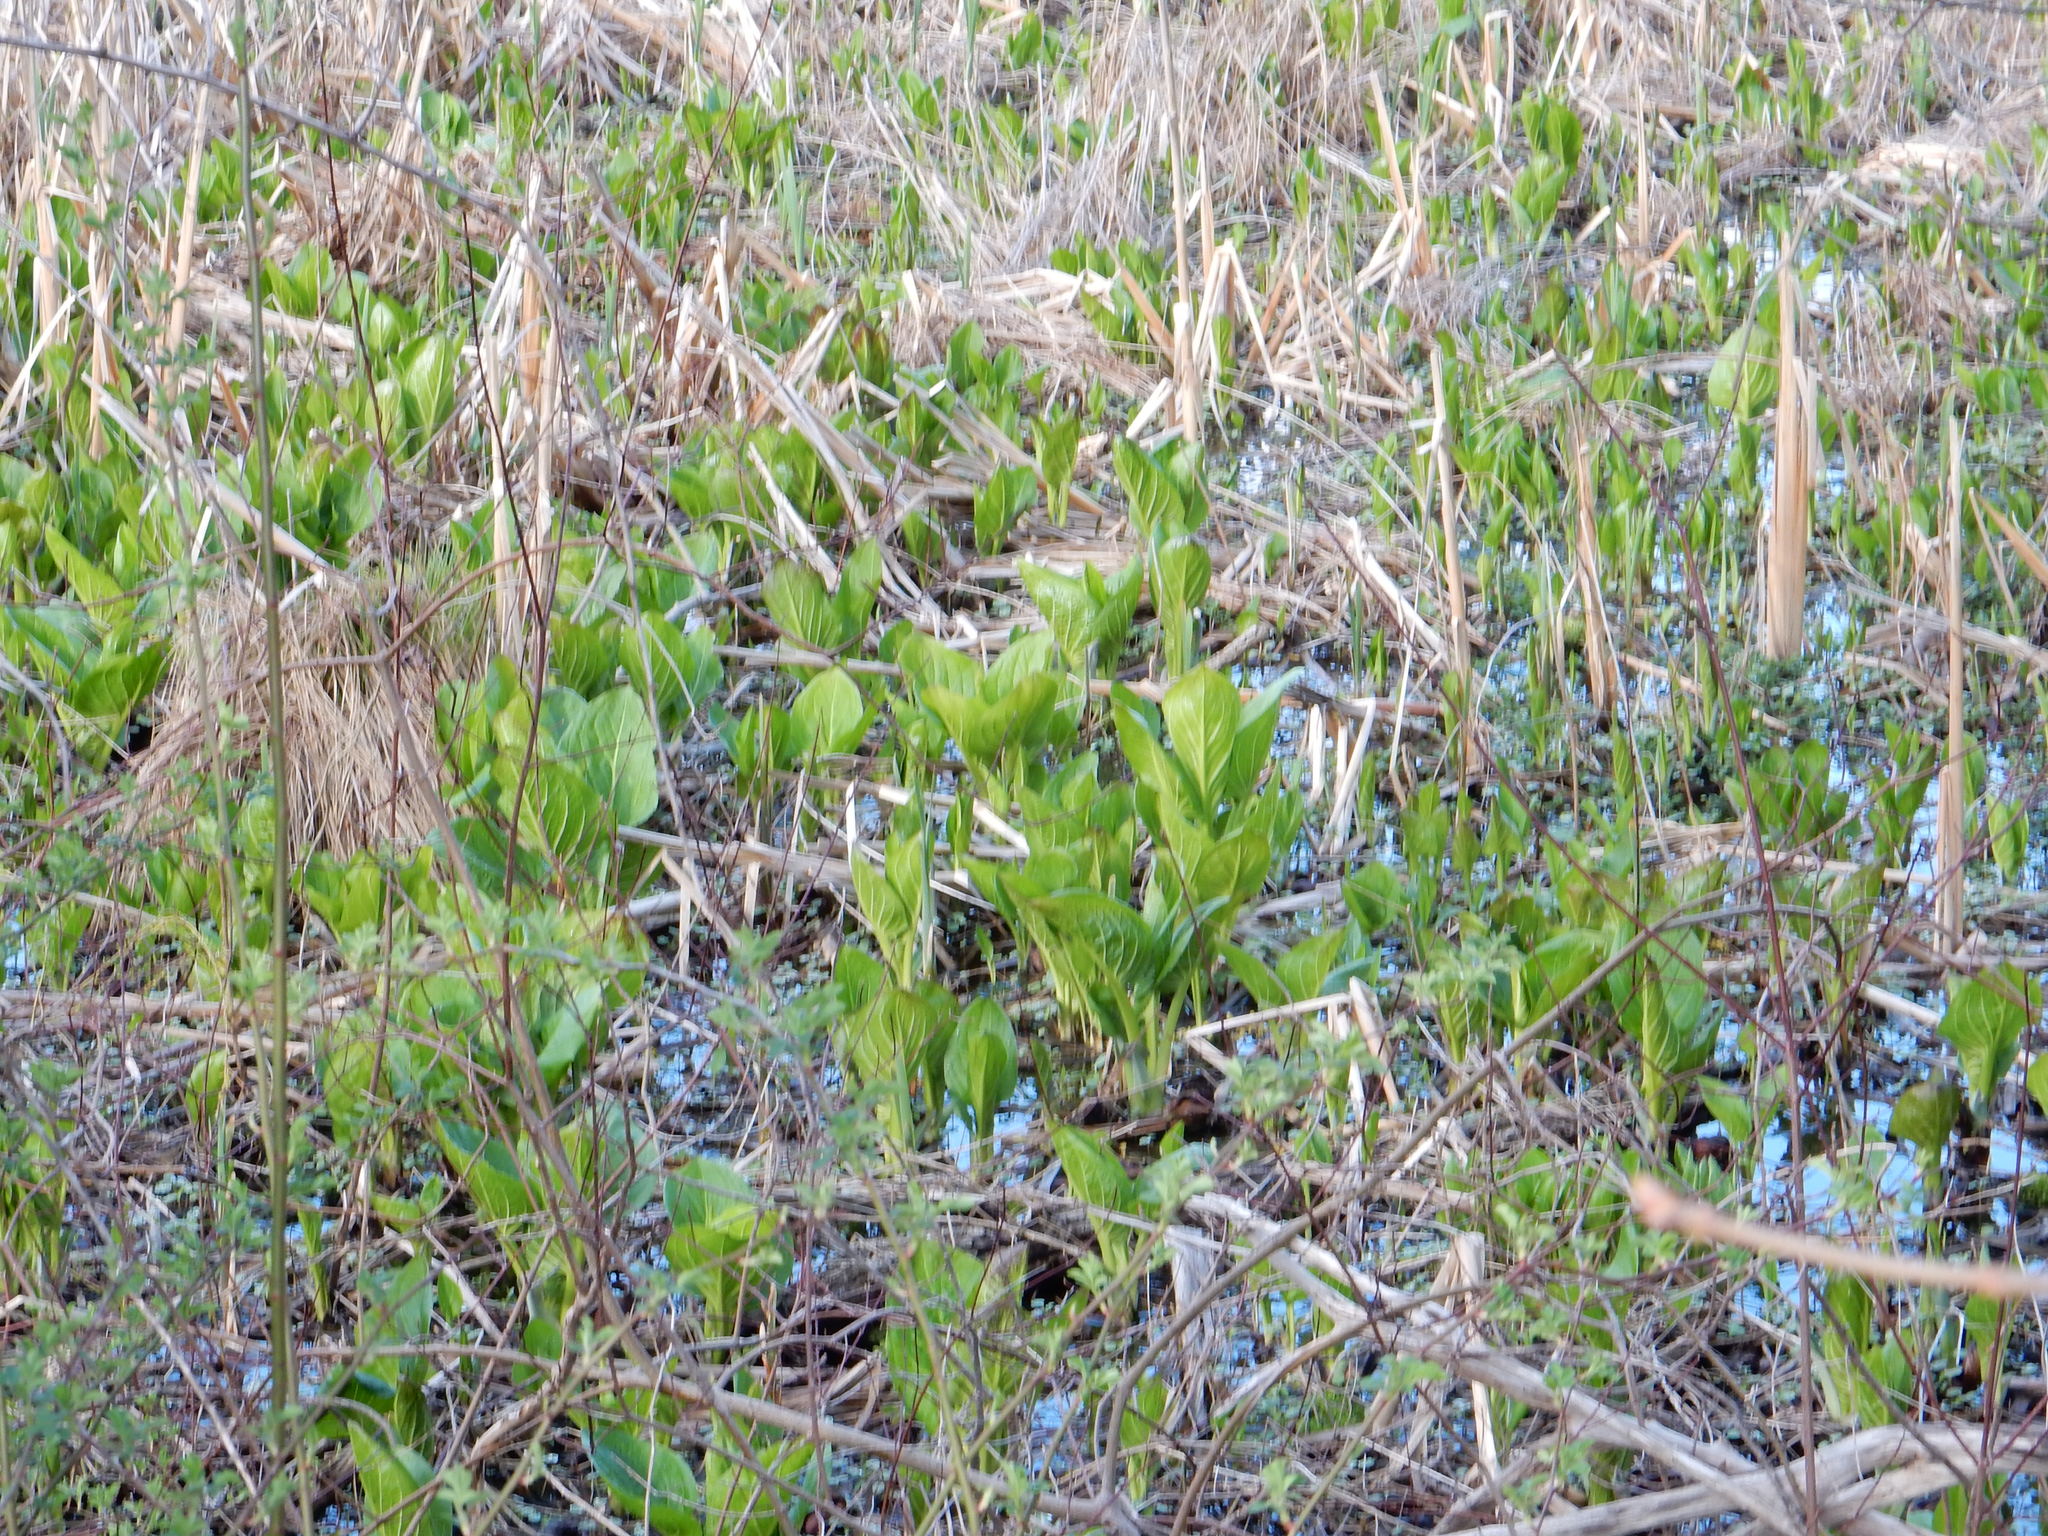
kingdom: Plantae
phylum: Tracheophyta
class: Liliopsida
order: Alismatales
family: Araceae
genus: Symplocarpus
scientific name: Symplocarpus foetidus
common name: Eastern skunk cabbage
